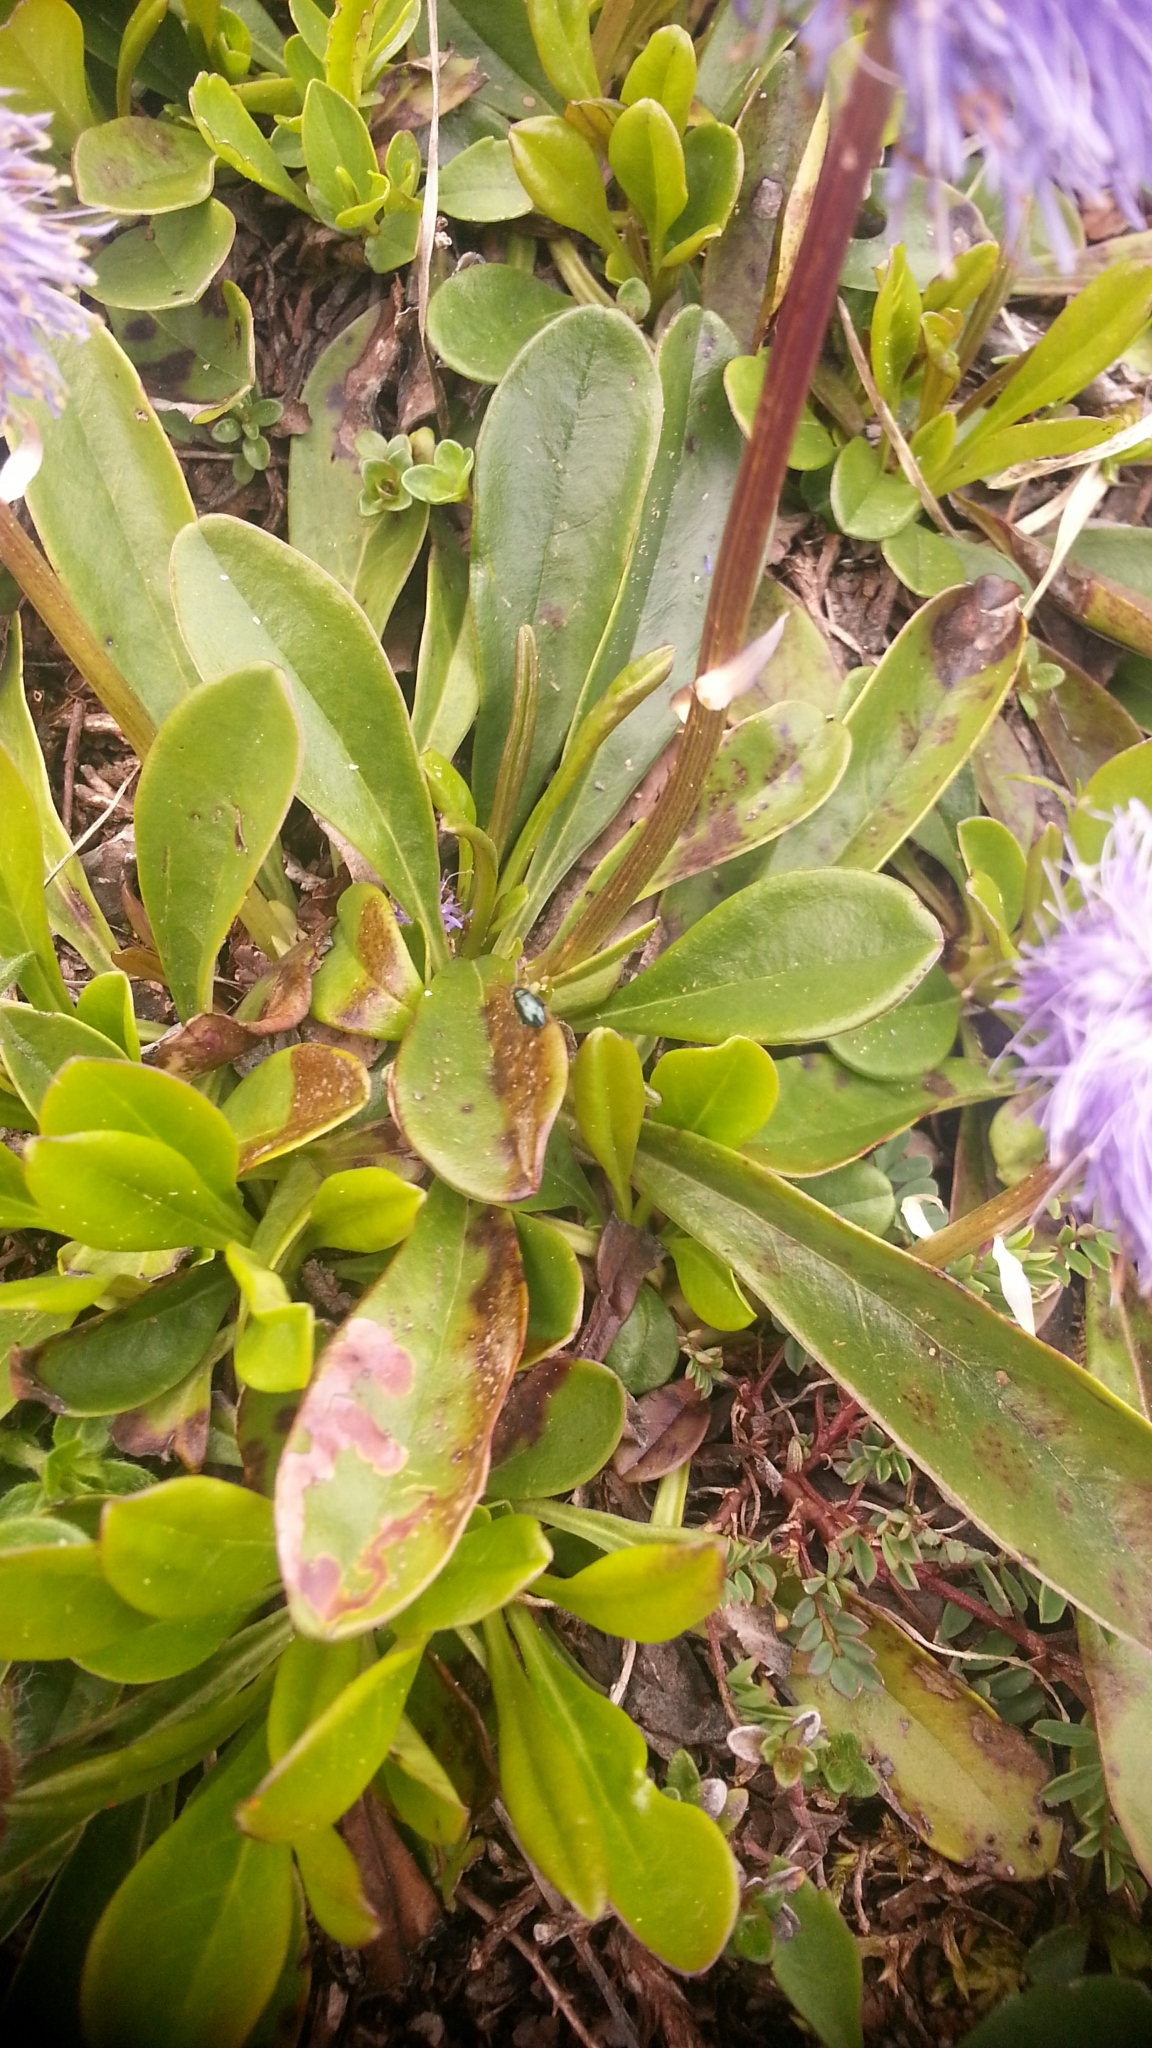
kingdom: Plantae
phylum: Tracheophyta
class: Magnoliopsida
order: Lamiales
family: Plantaginaceae
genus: Globularia
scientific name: Globularia nudicaulis
